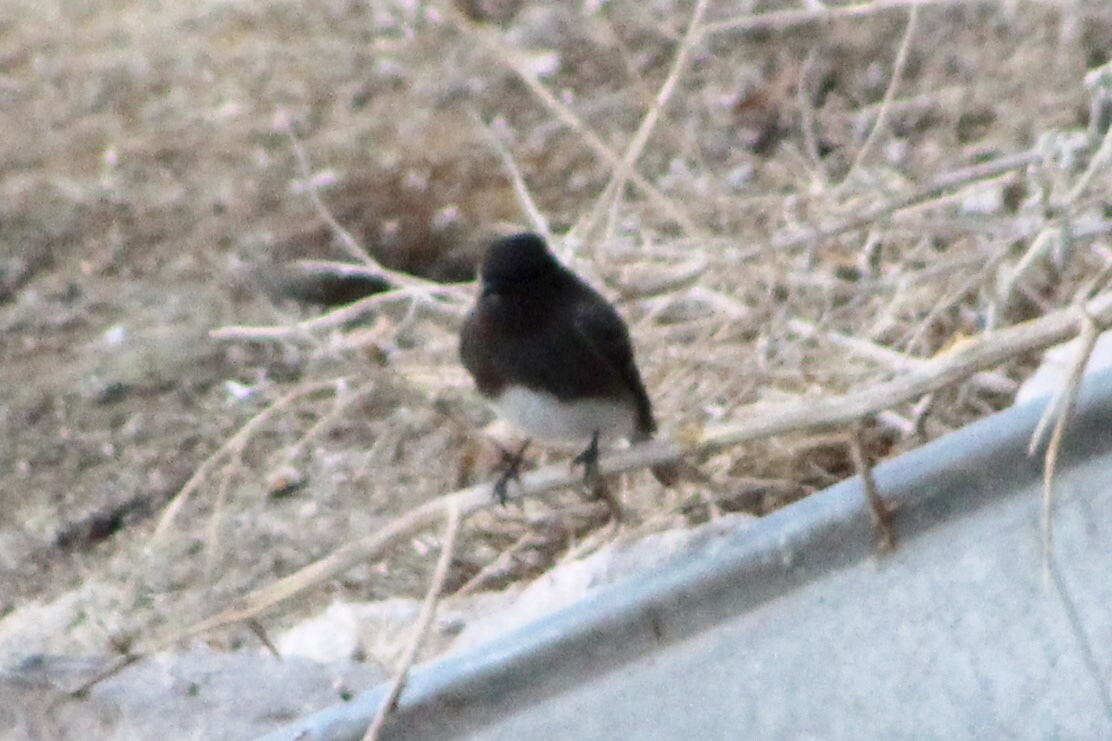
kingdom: Animalia
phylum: Chordata
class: Aves
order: Passeriformes
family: Tyrannidae
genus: Sayornis
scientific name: Sayornis nigricans
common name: Black phoebe
